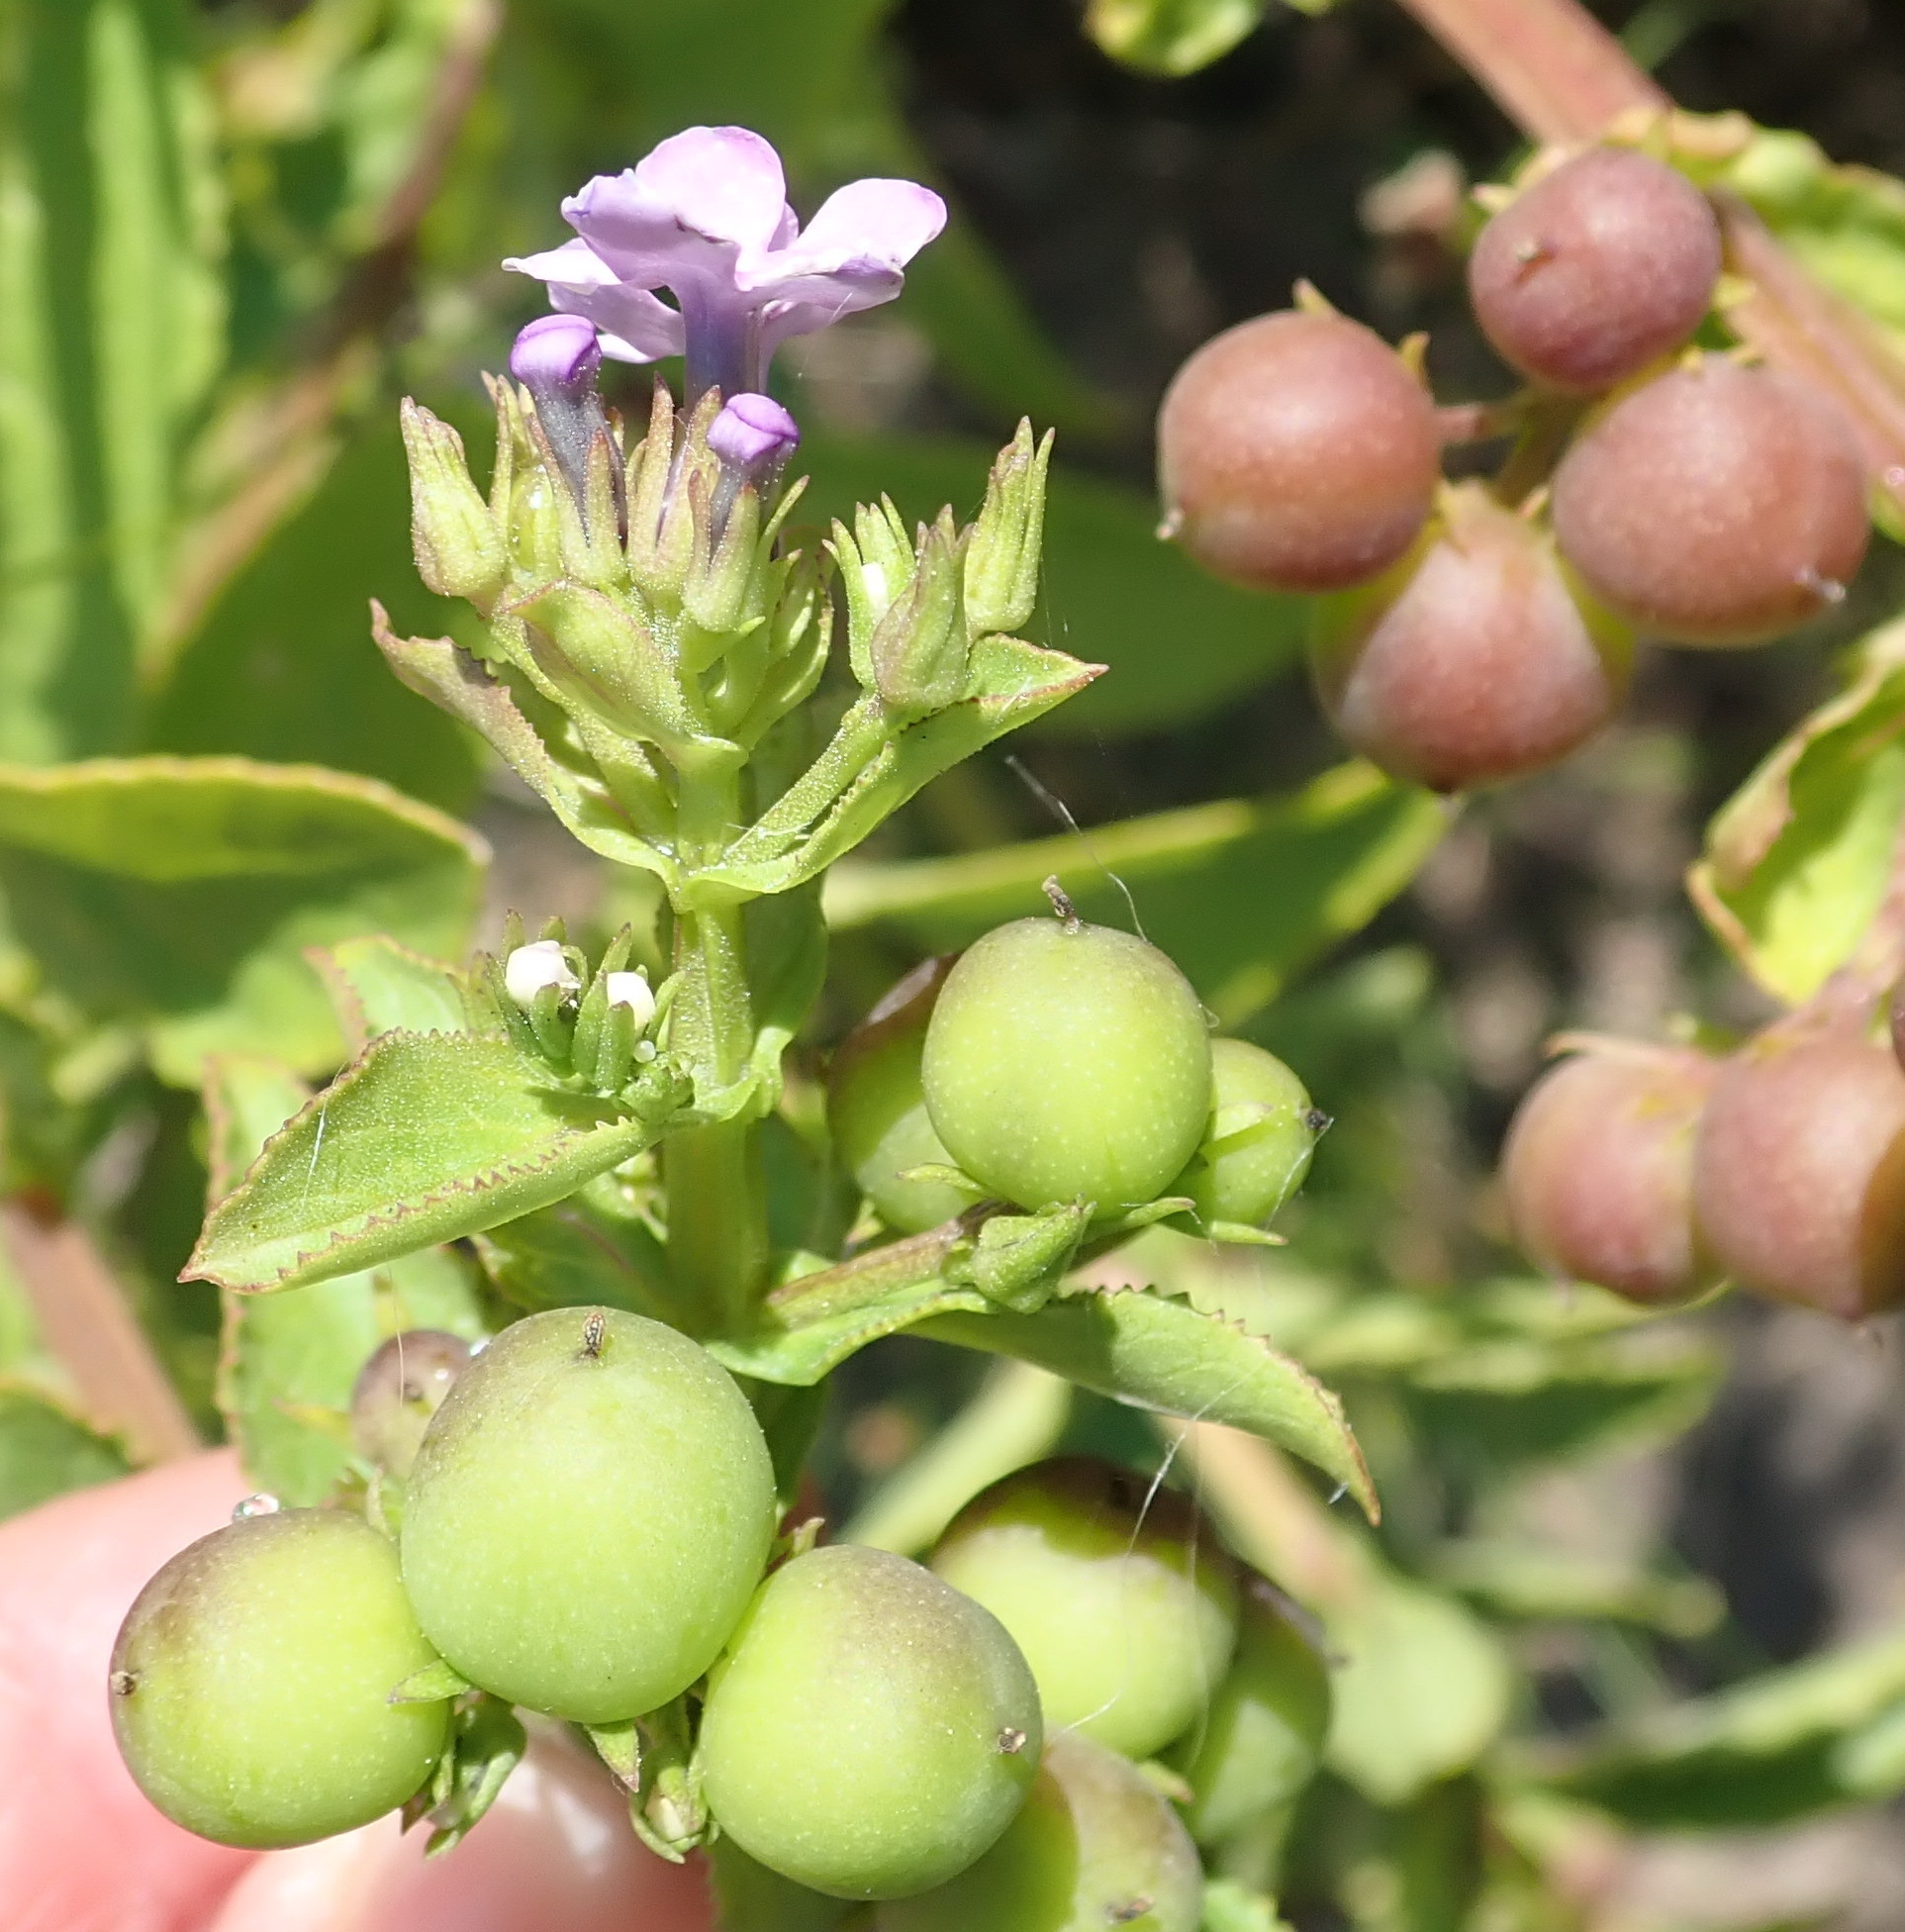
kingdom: Plantae
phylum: Tracheophyta
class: Magnoliopsida
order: Lamiales
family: Scrophulariaceae
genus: Teedia
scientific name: Teedia lucida
